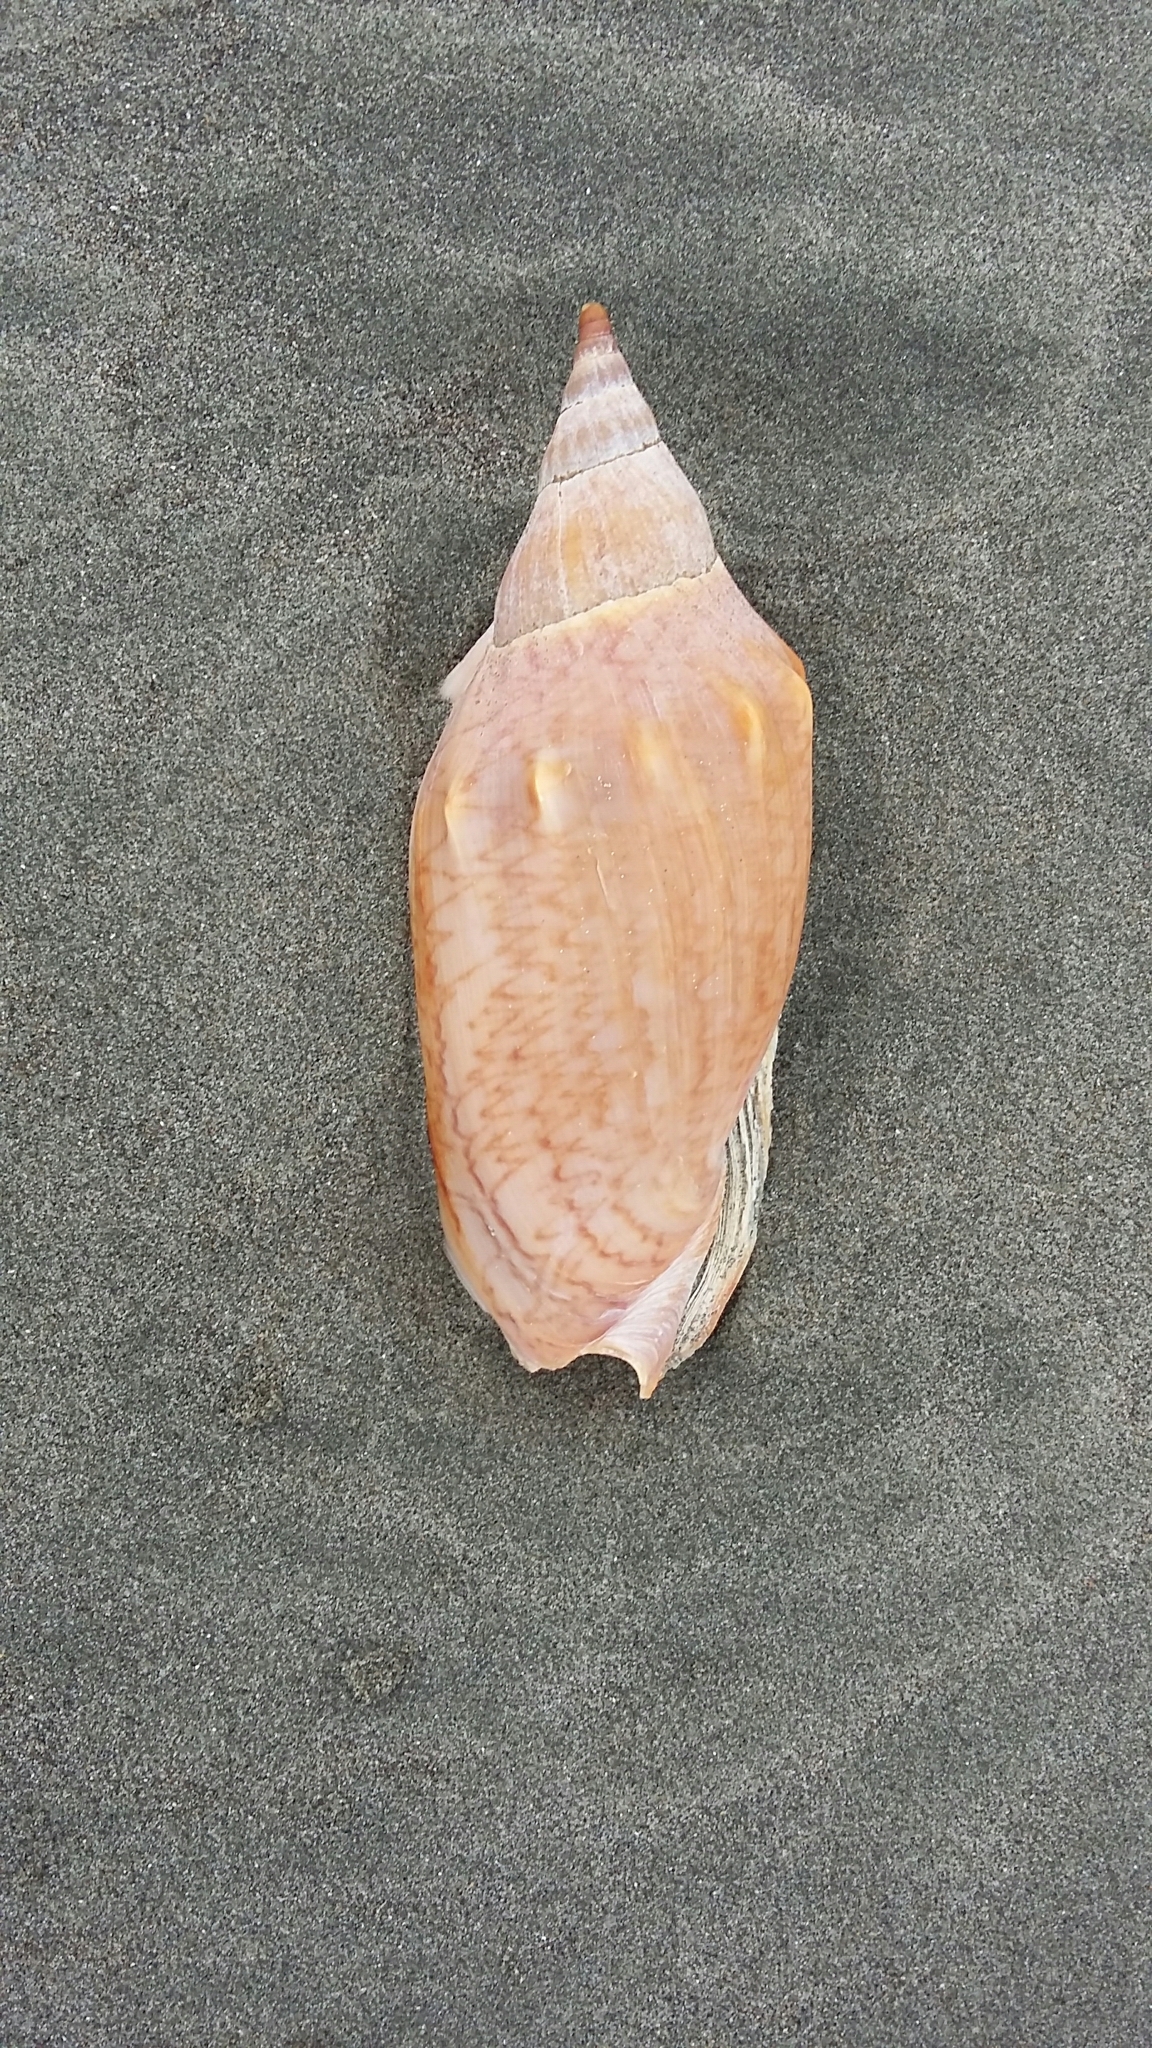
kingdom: Animalia
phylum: Mollusca
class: Gastropoda
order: Neogastropoda
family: Volutidae
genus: Alcithoe
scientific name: Alcithoe arabica
